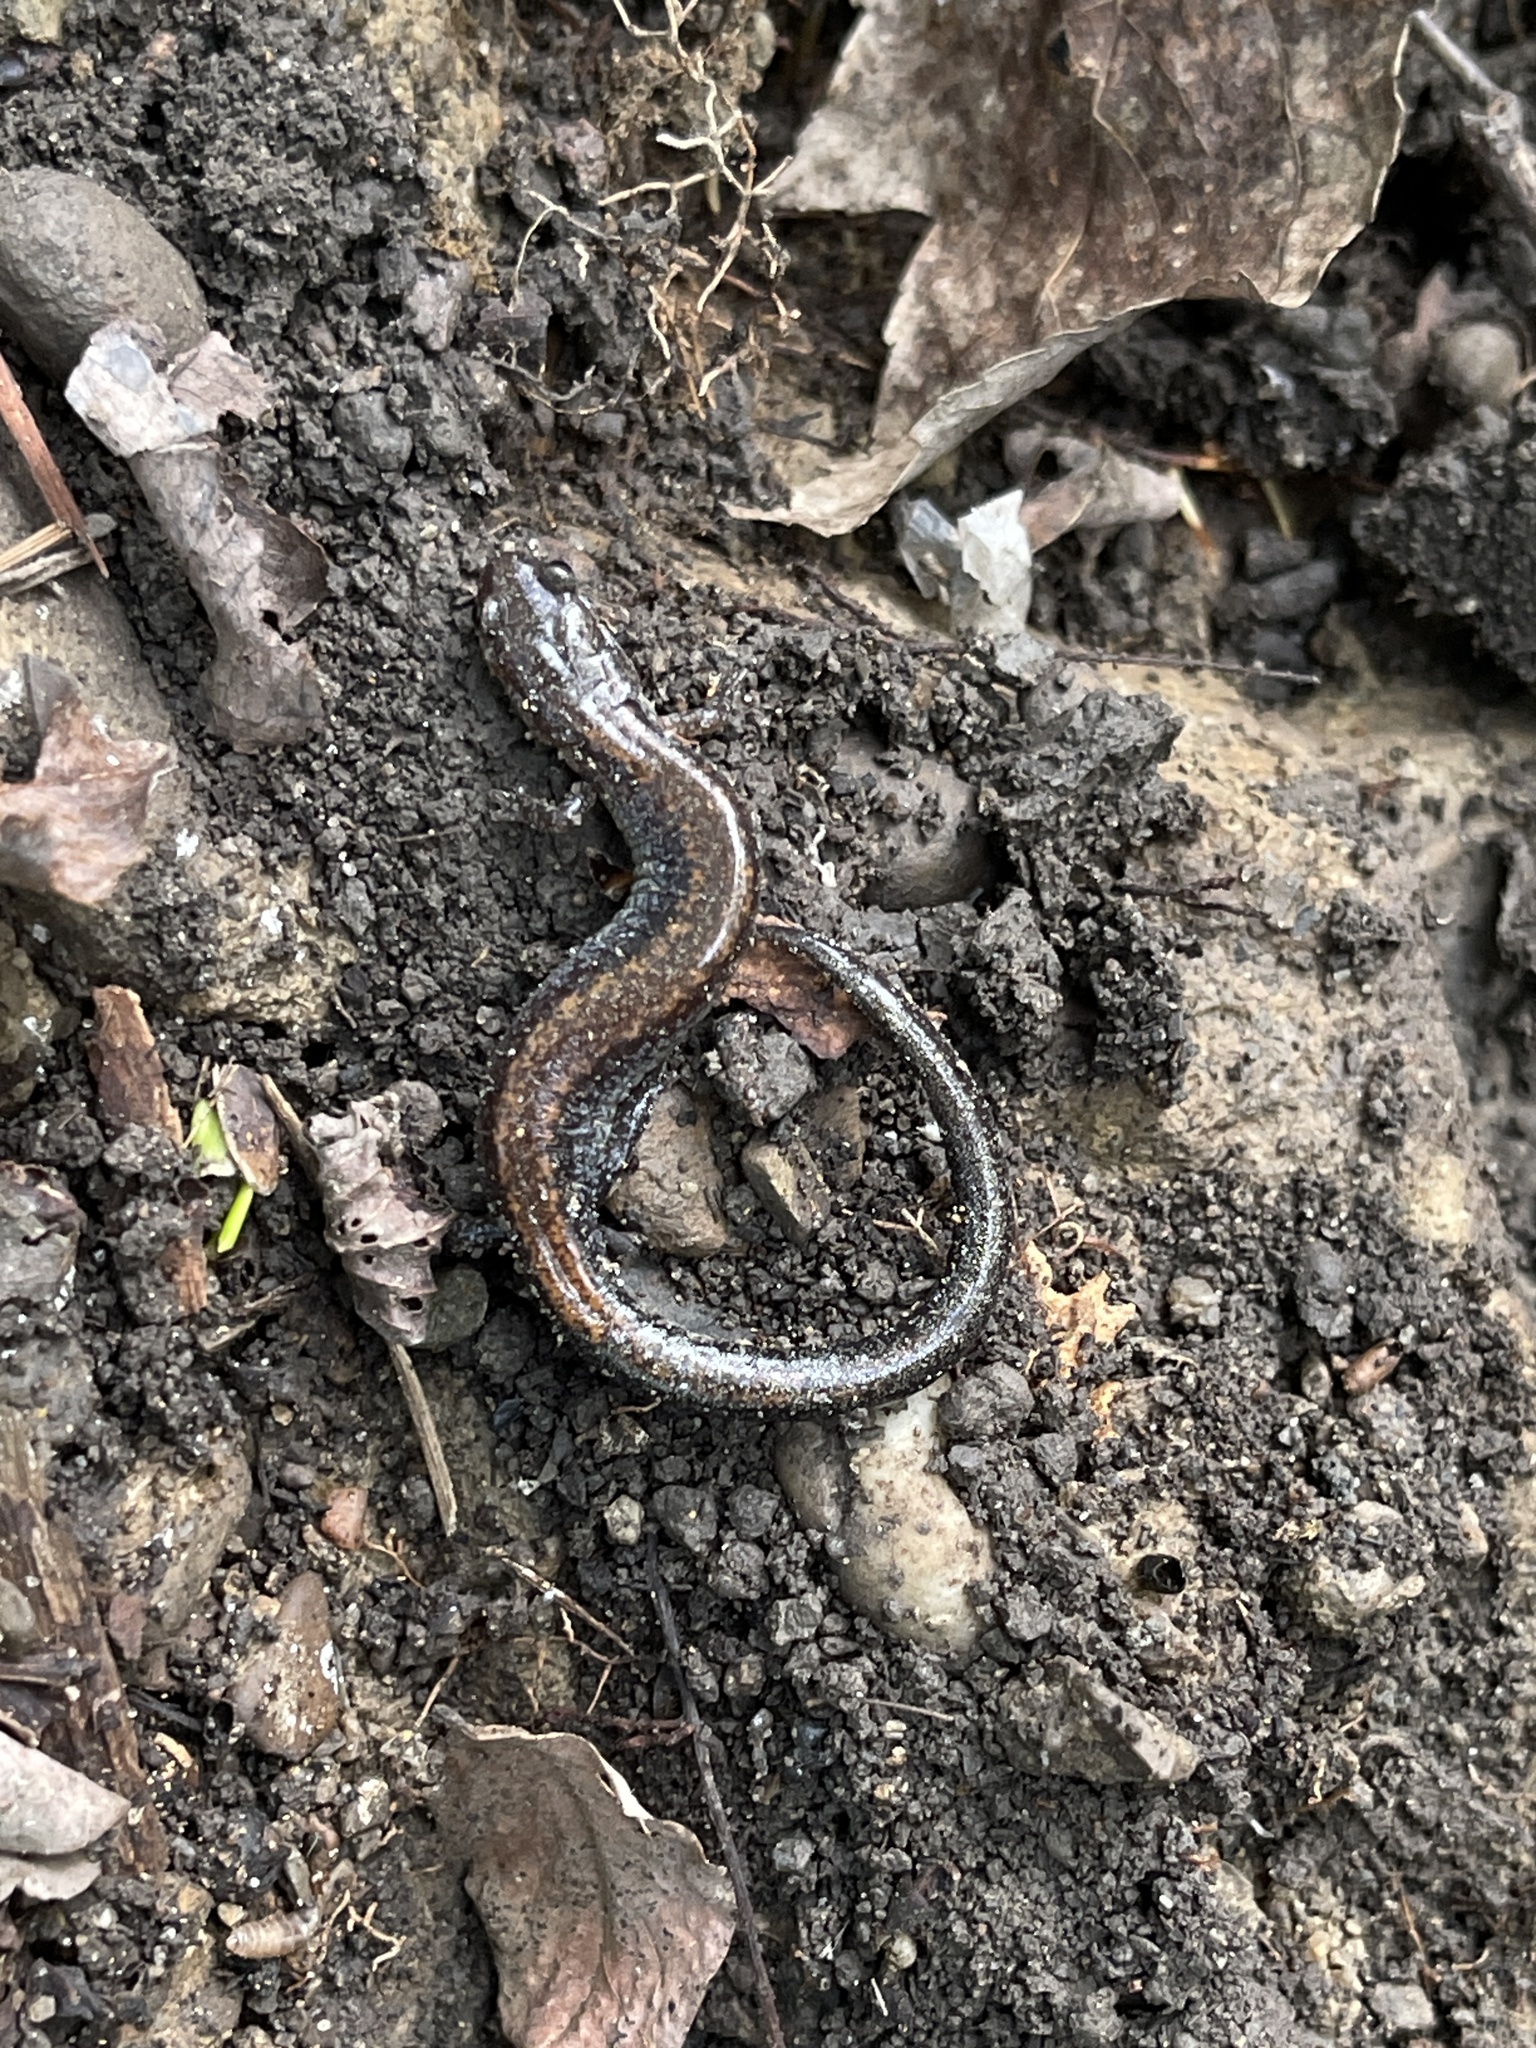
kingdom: Animalia
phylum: Chordata
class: Amphibia
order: Caudata
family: Plethodontidae
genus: Plethodon
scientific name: Plethodon cinereus
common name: Redback salamander
